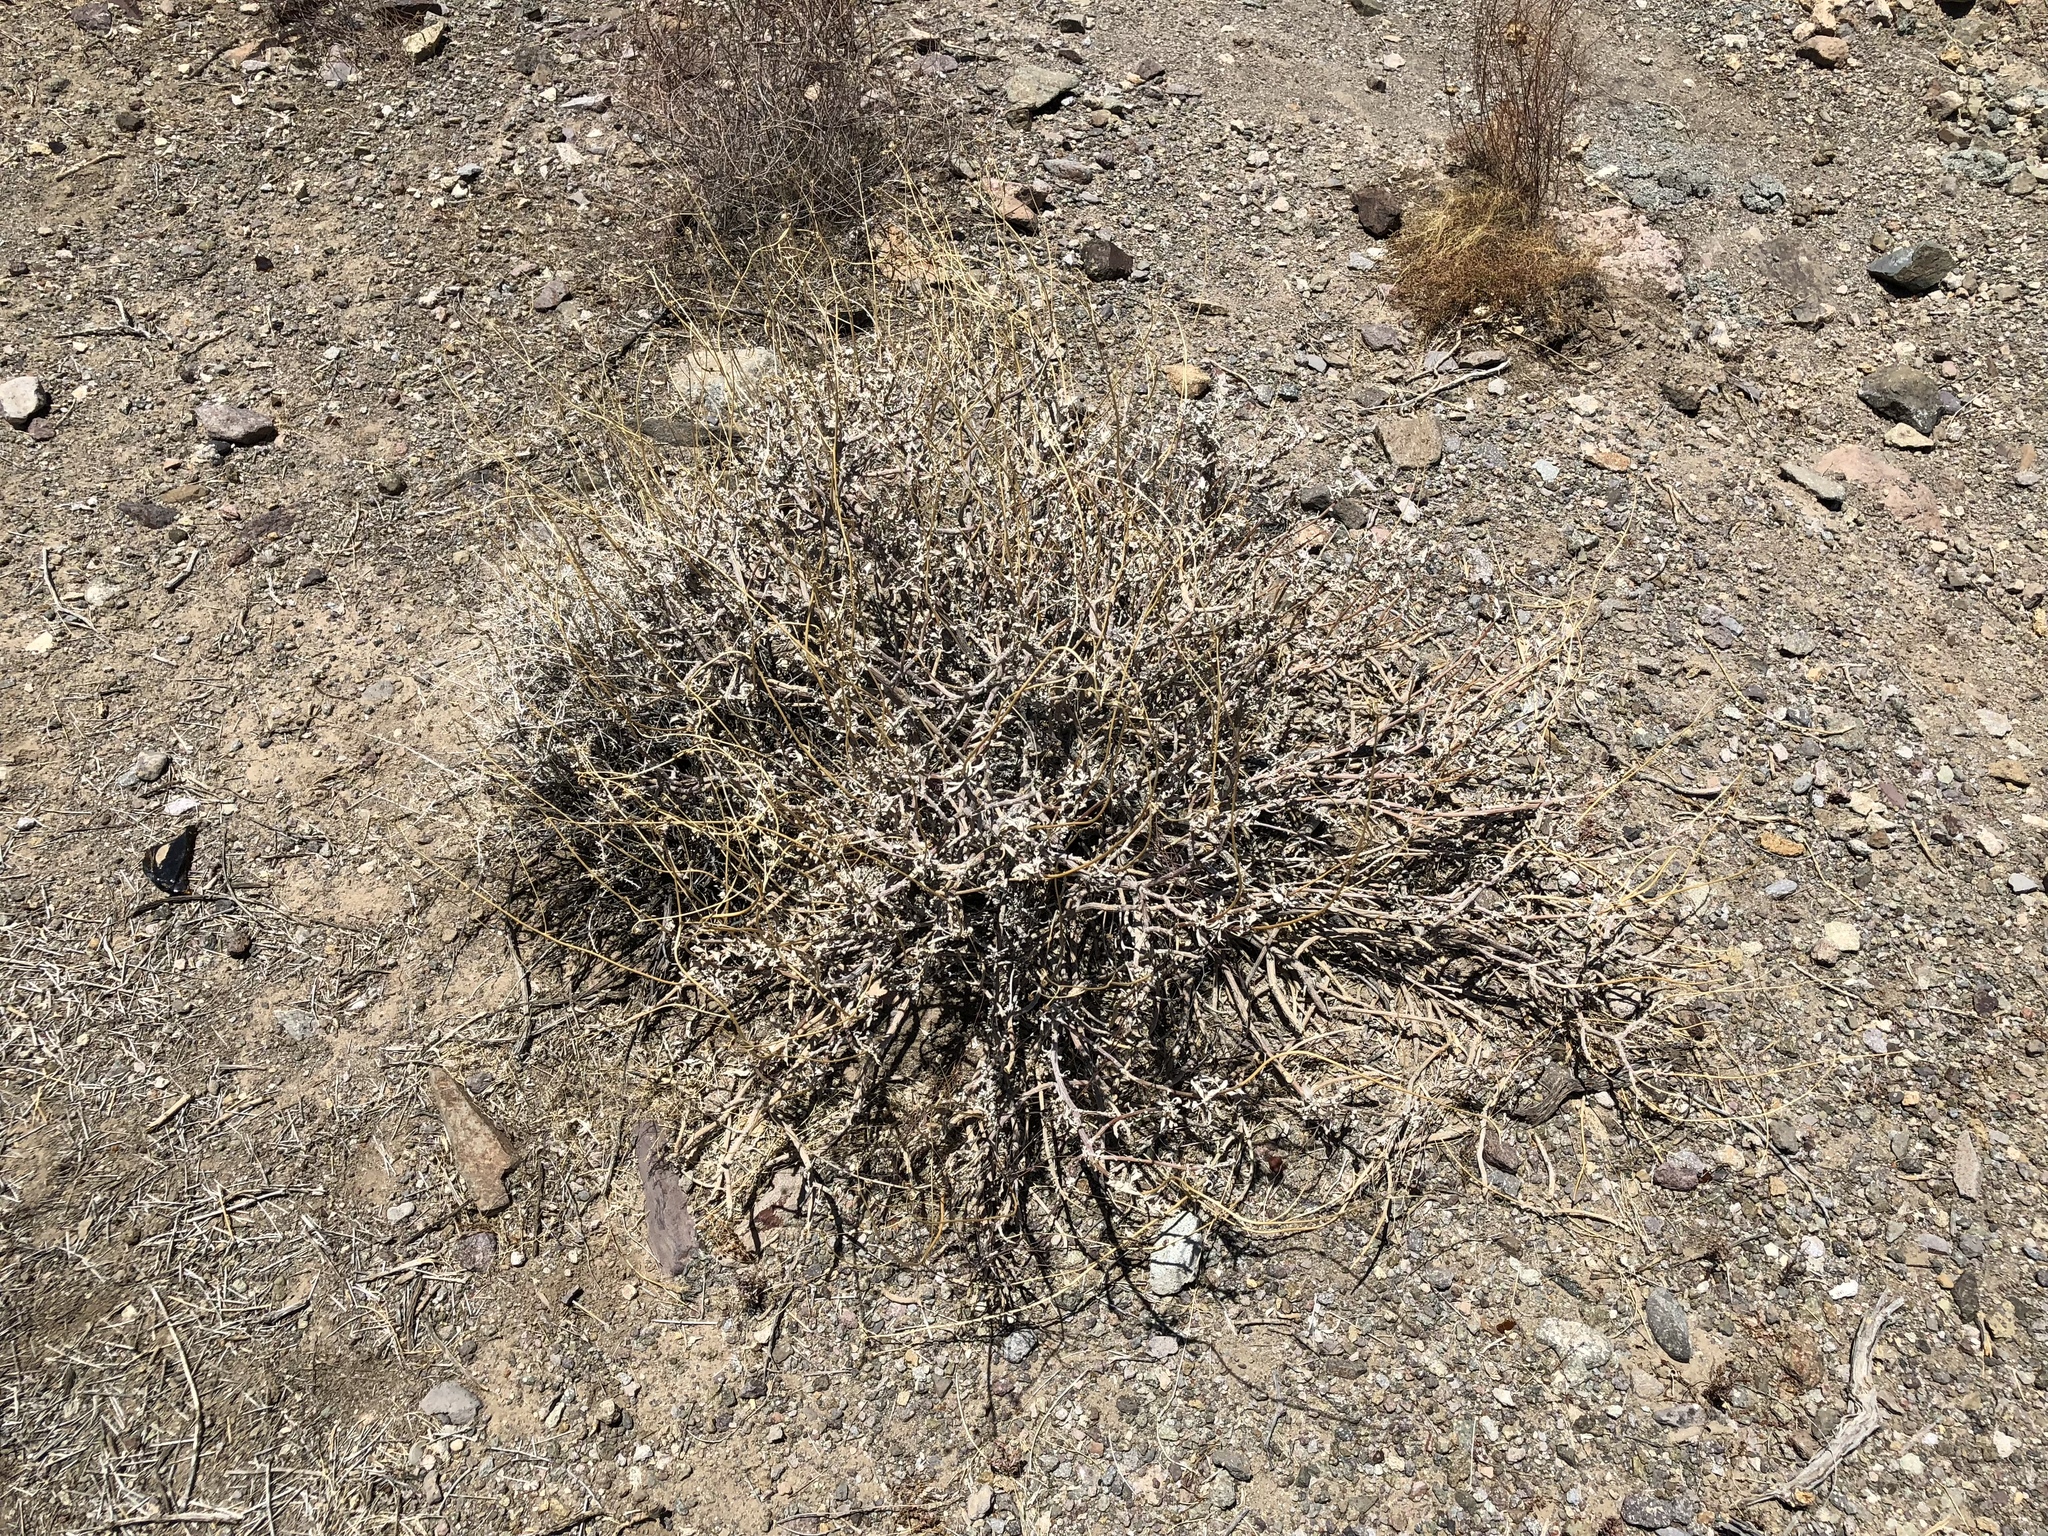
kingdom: Plantae
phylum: Tracheophyta
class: Magnoliopsida
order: Asterales
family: Asteraceae
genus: Encelia
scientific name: Encelia farinosa
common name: Brittlebush
